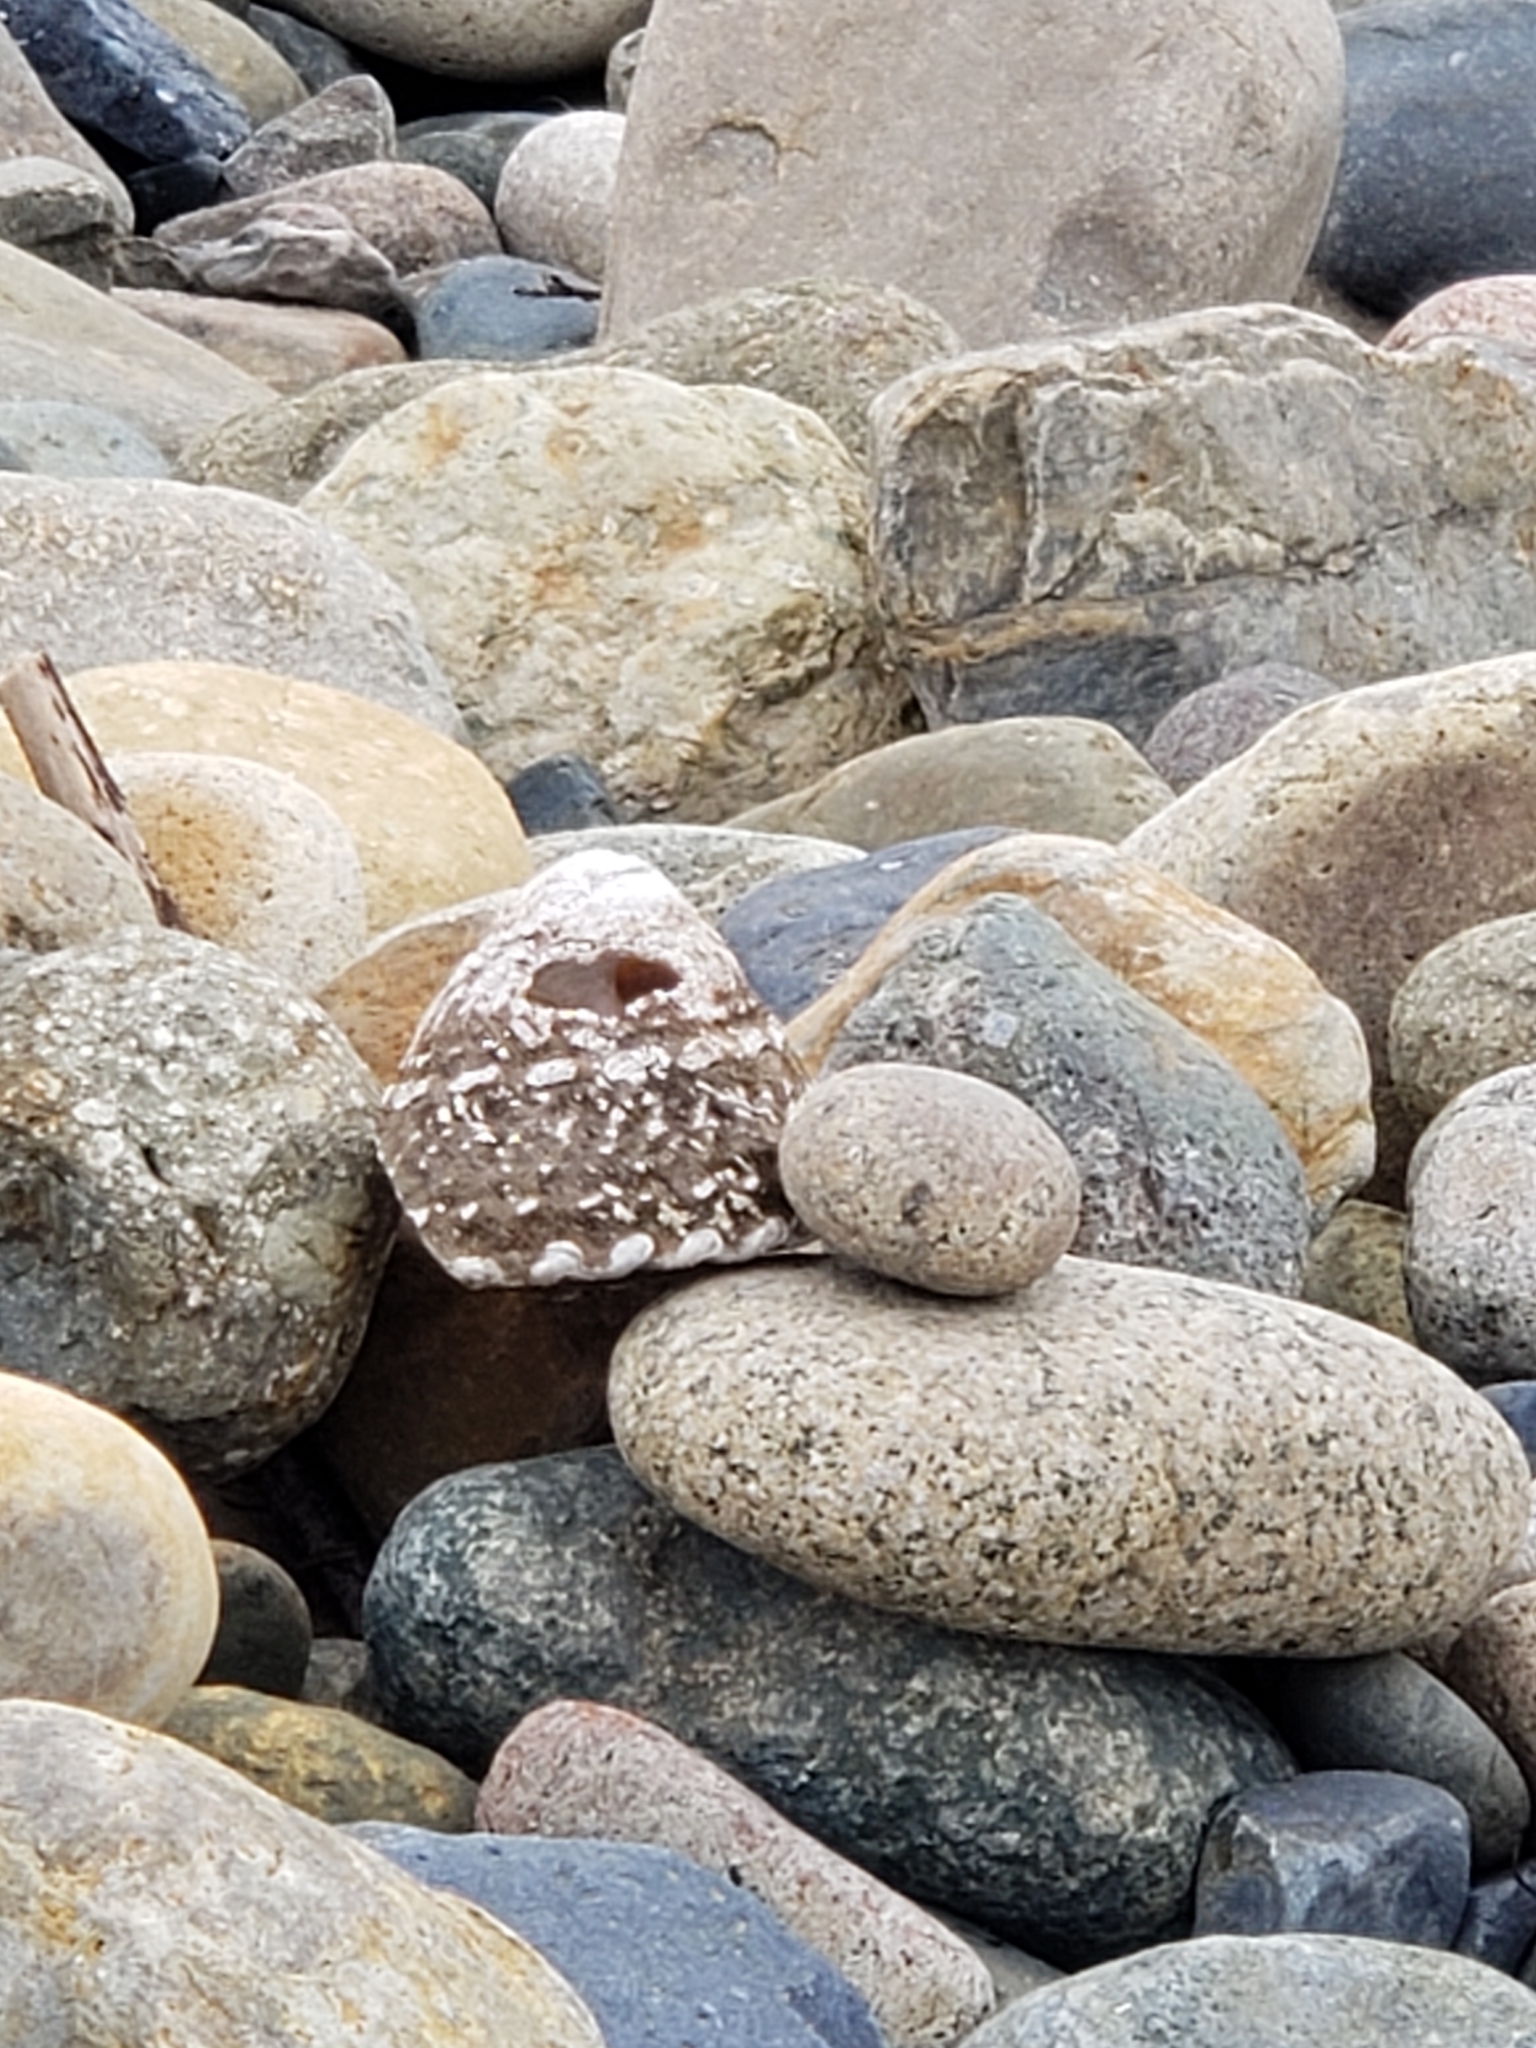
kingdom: Animalia
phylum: Mollusca
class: Gastropoda
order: Trochida
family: Turbinidae
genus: Megastraea
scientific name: Megastraea undosa
